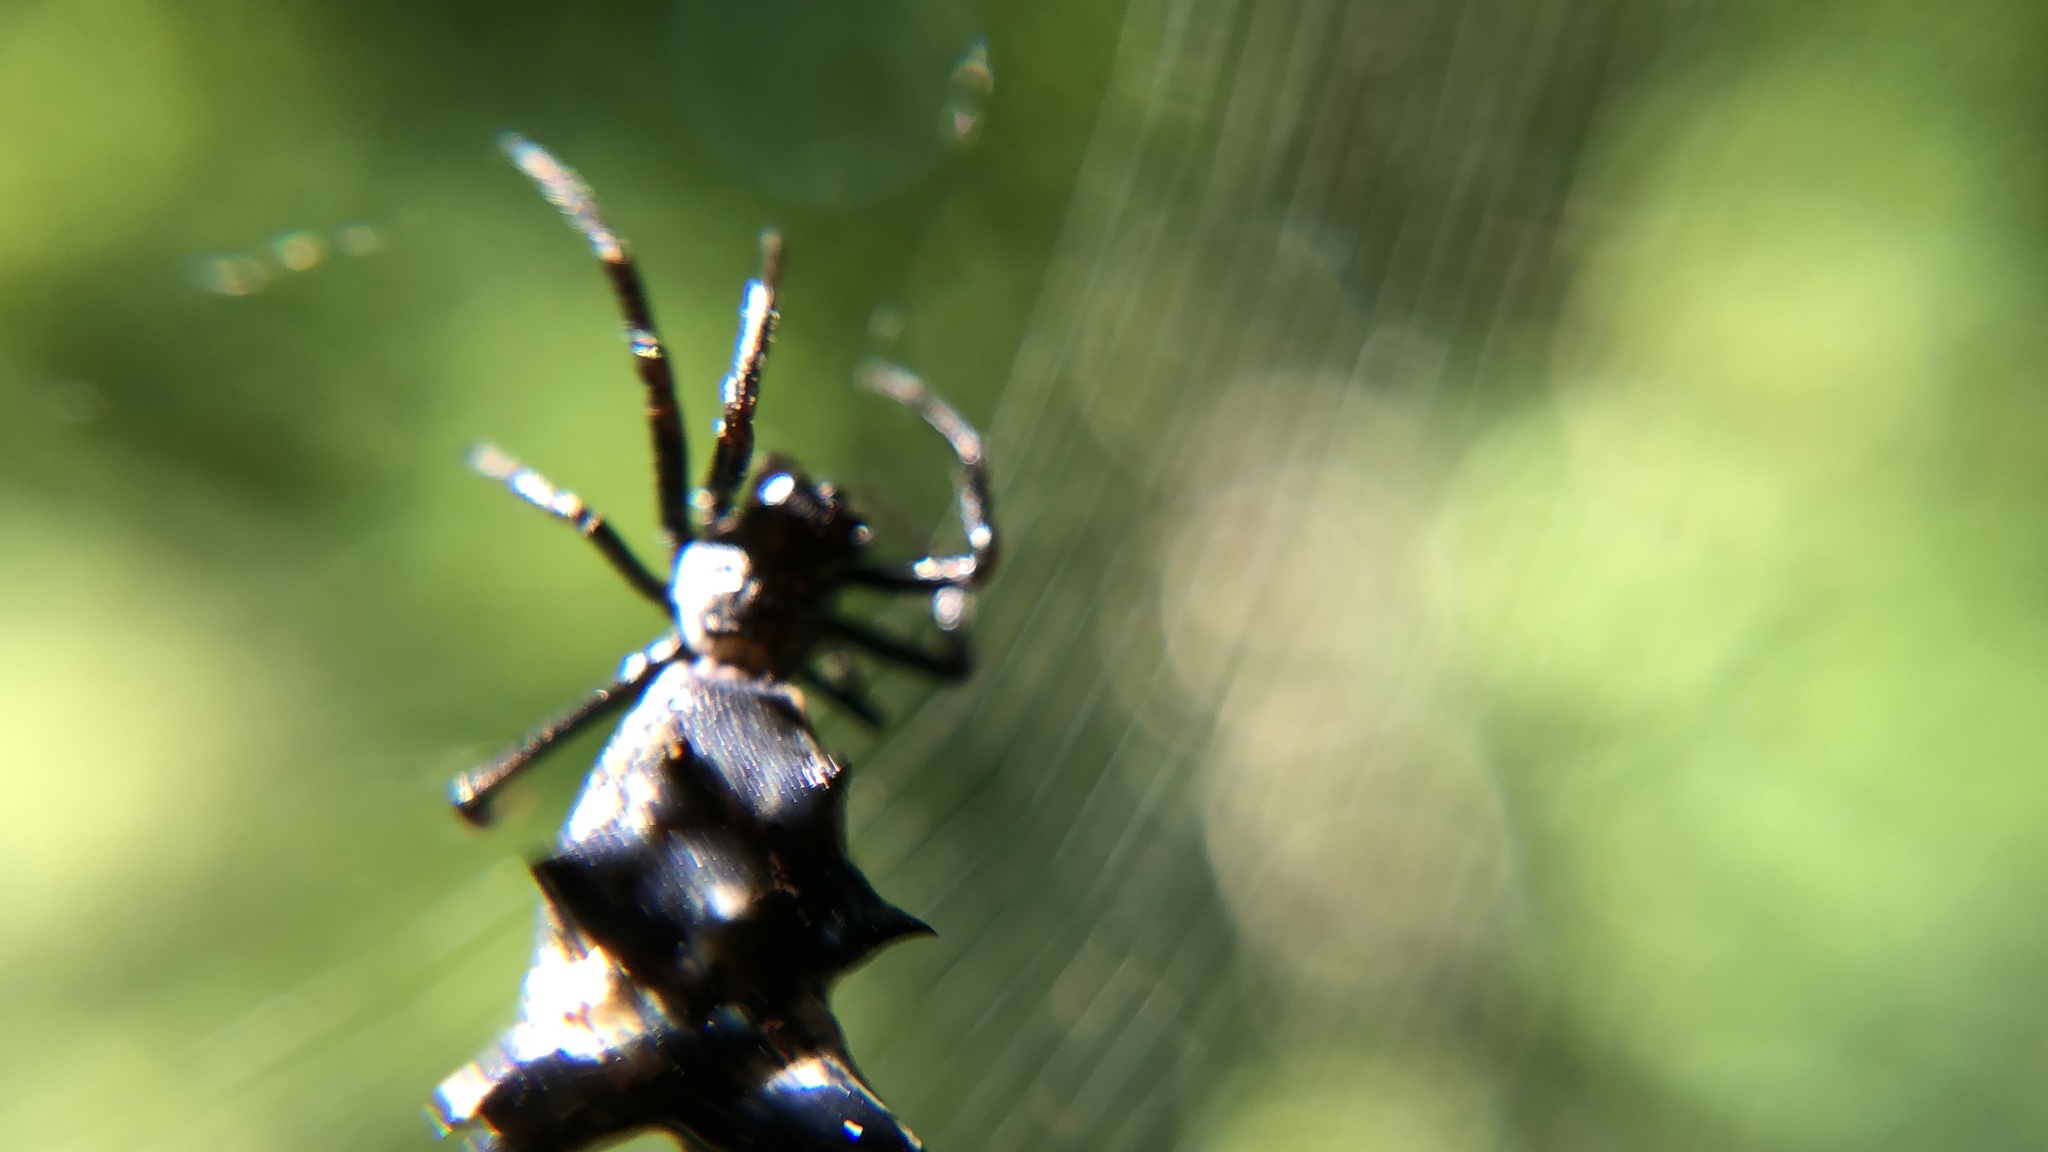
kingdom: Animalia
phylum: Arthropoda
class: Arachnida
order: Araneae
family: Araneidae
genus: Micrathena
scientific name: Micrathena gracilis
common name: Orb weavers
